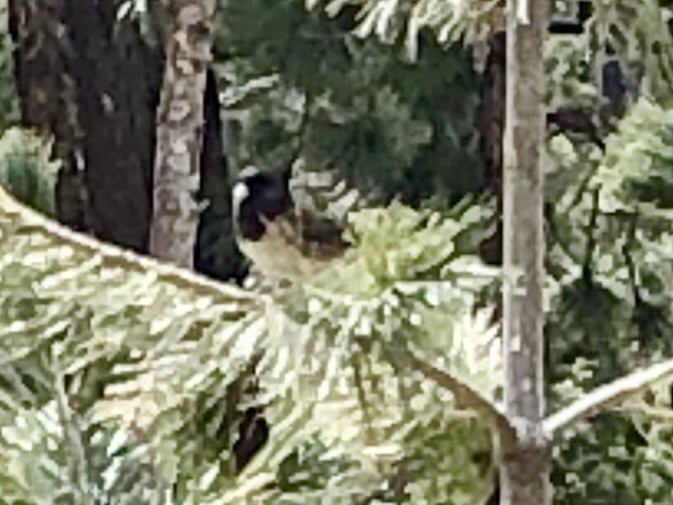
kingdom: Animalia
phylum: Chordata
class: Aves
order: Passeriformes
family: Passerellidae
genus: Junco
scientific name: Junco hyemalis
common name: Dark-eyed junco
